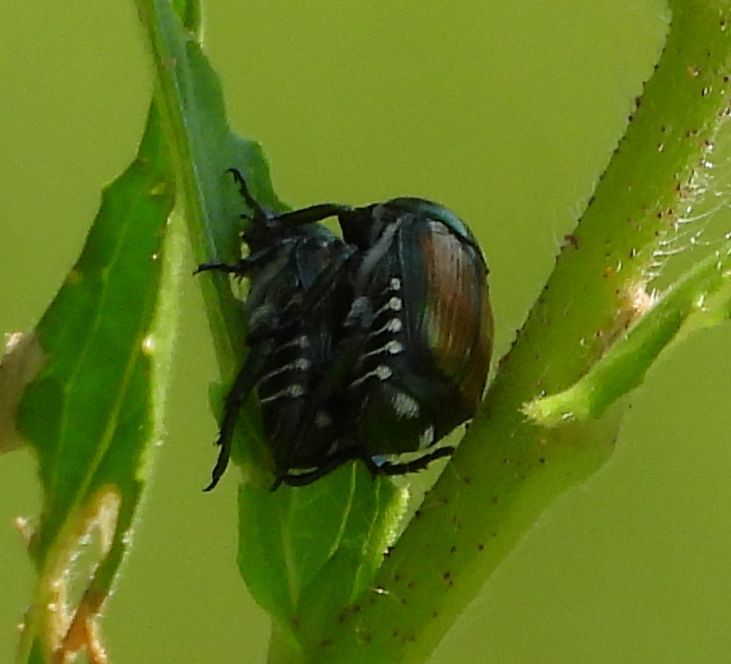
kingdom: Animalia
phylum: Arthropoda
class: Insecta
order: Coleoptera
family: Scarabaeidae
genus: Popillia
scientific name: Popillia japonica
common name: Japanese beetle
